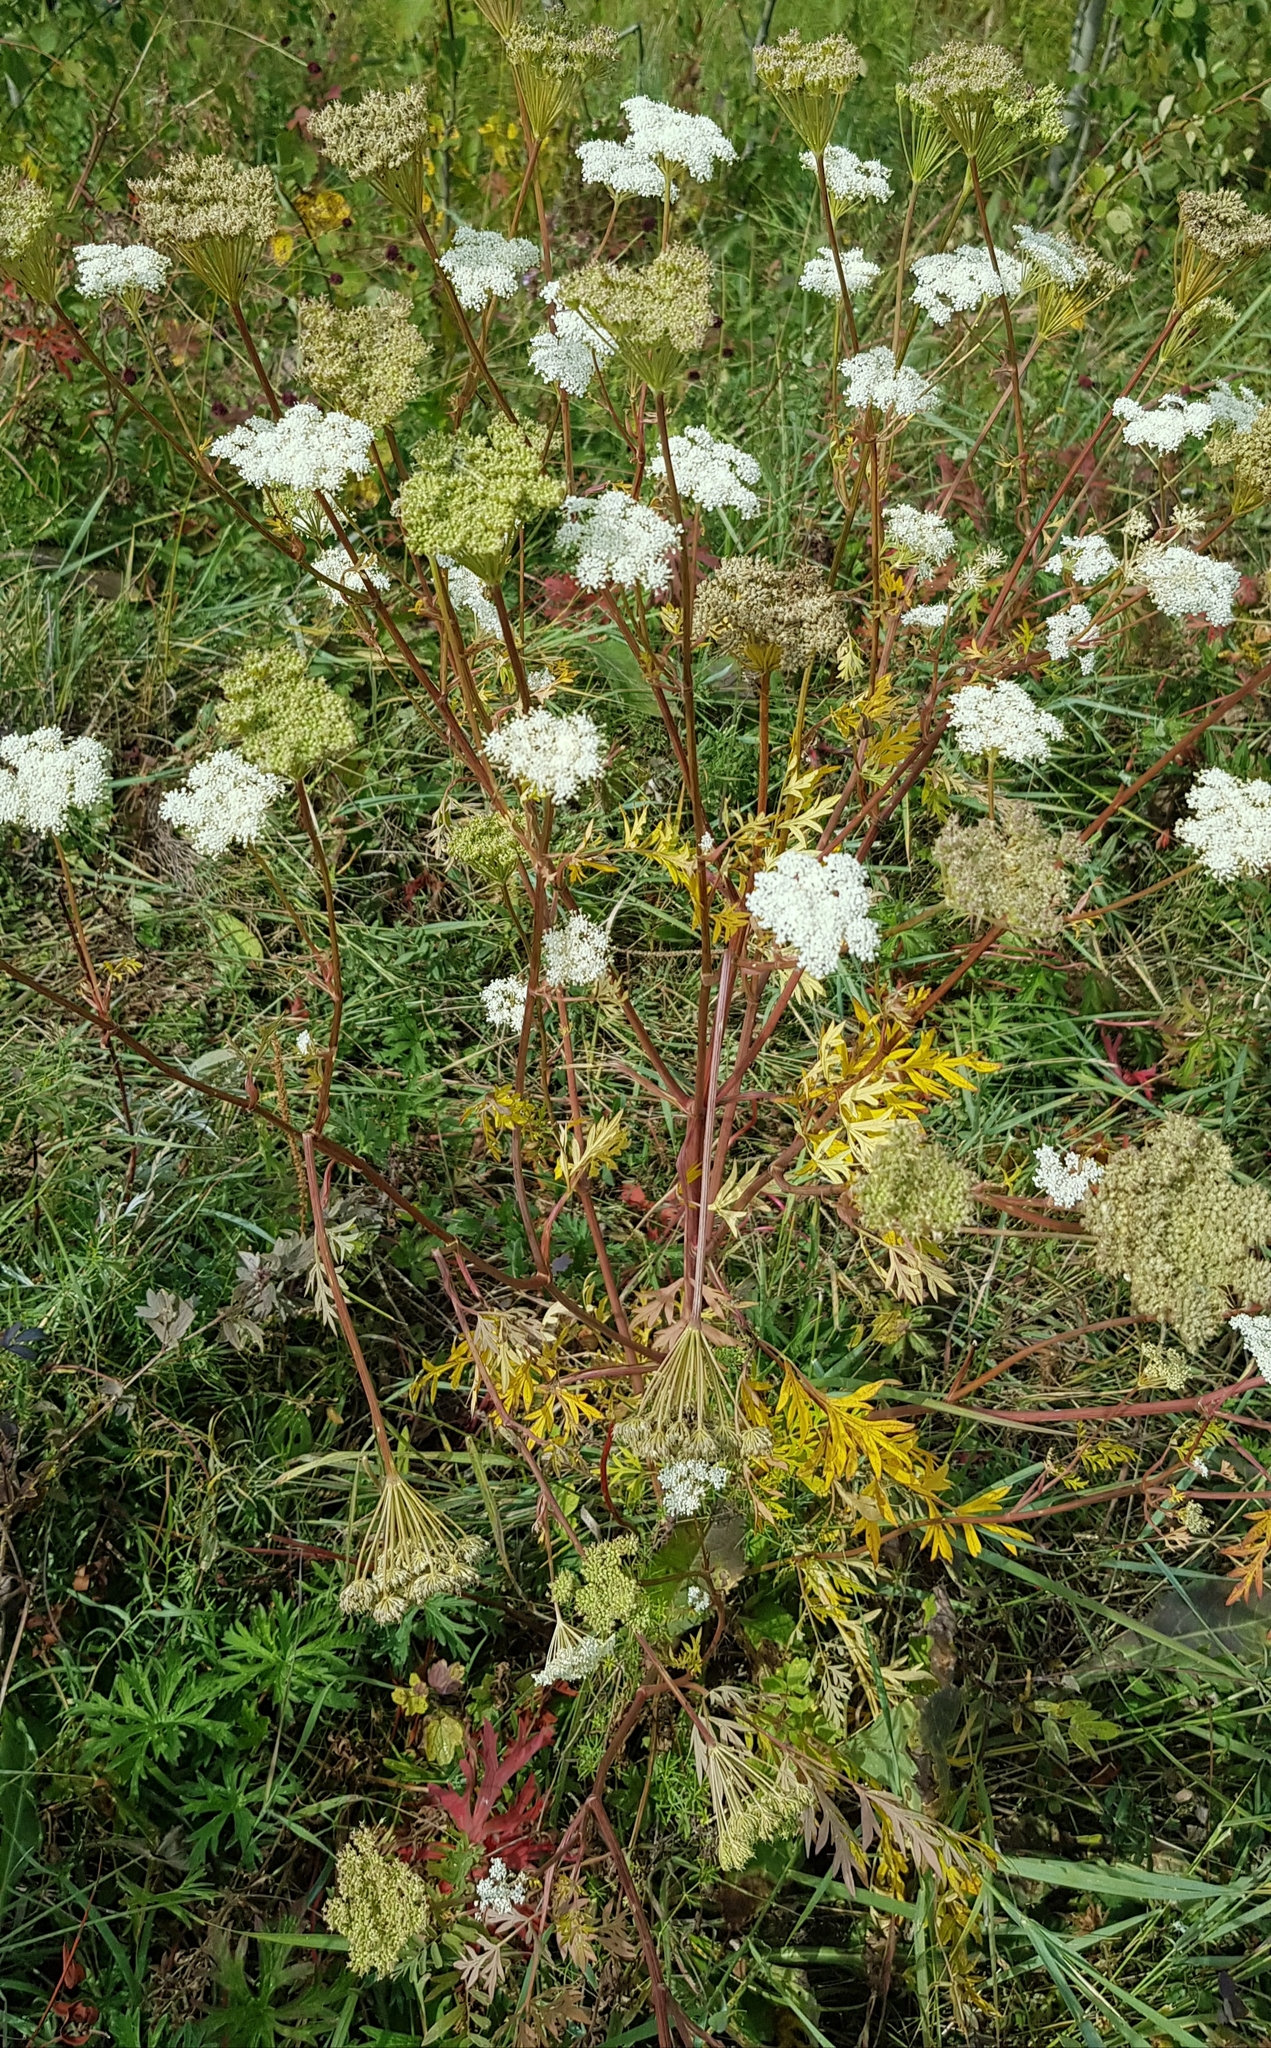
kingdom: Plantae
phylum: Tracheophyta
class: Magnoliopsida
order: Apiales
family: Apiaceae
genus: Kitagawia
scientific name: Kitagawia terebinthacea
